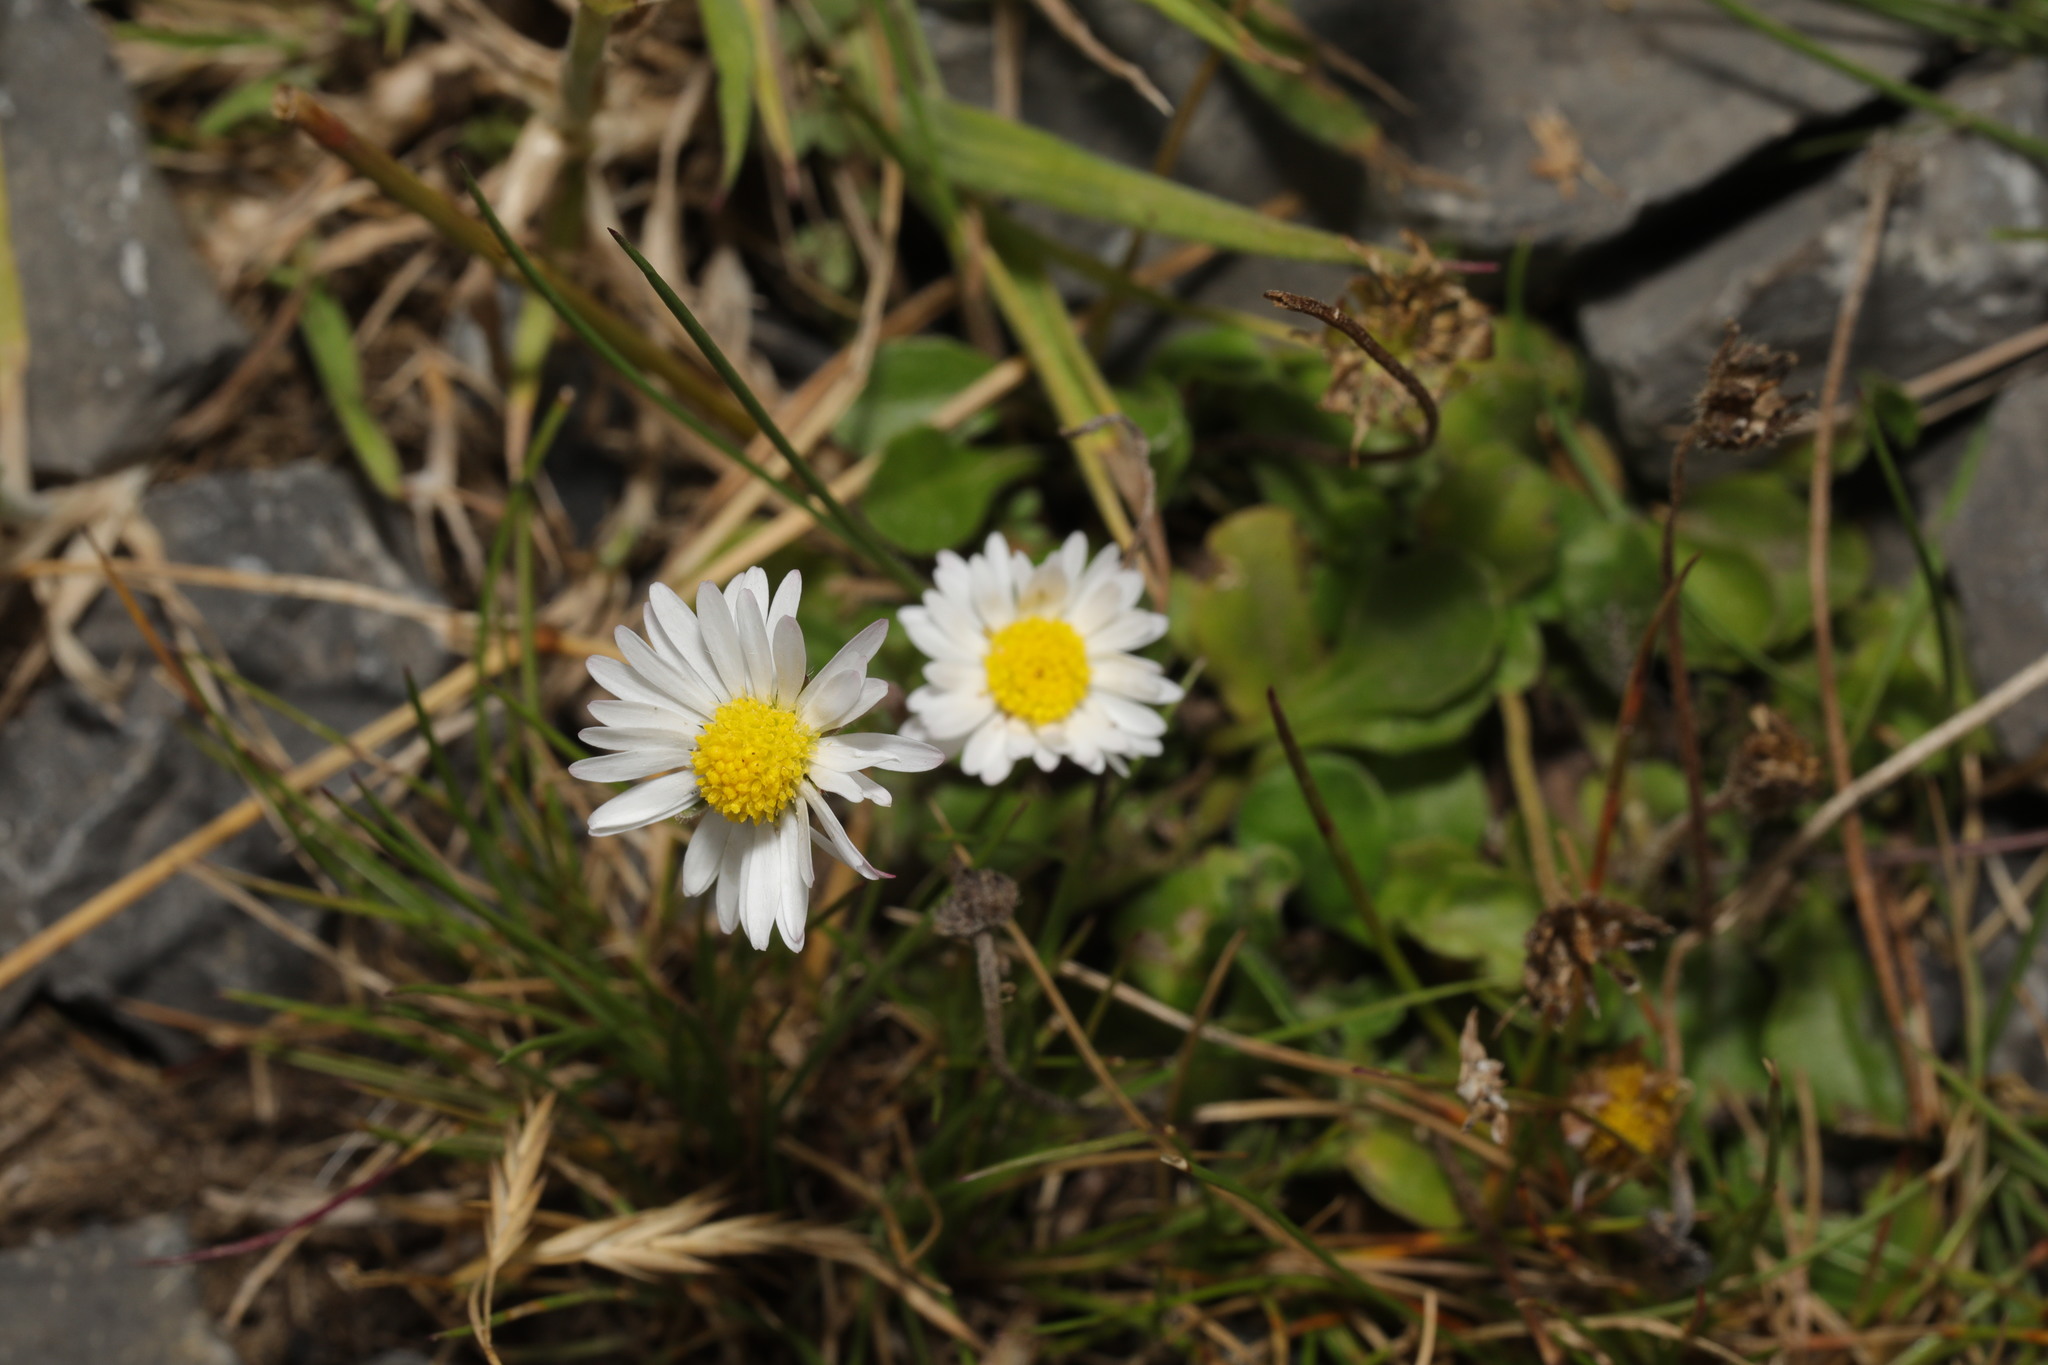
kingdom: Plantae
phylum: Tracheophyta
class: Magnoliopsida
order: Asterales
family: Asteraceae
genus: Bellis
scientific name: Bellis perennis
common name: Lawndaisy
